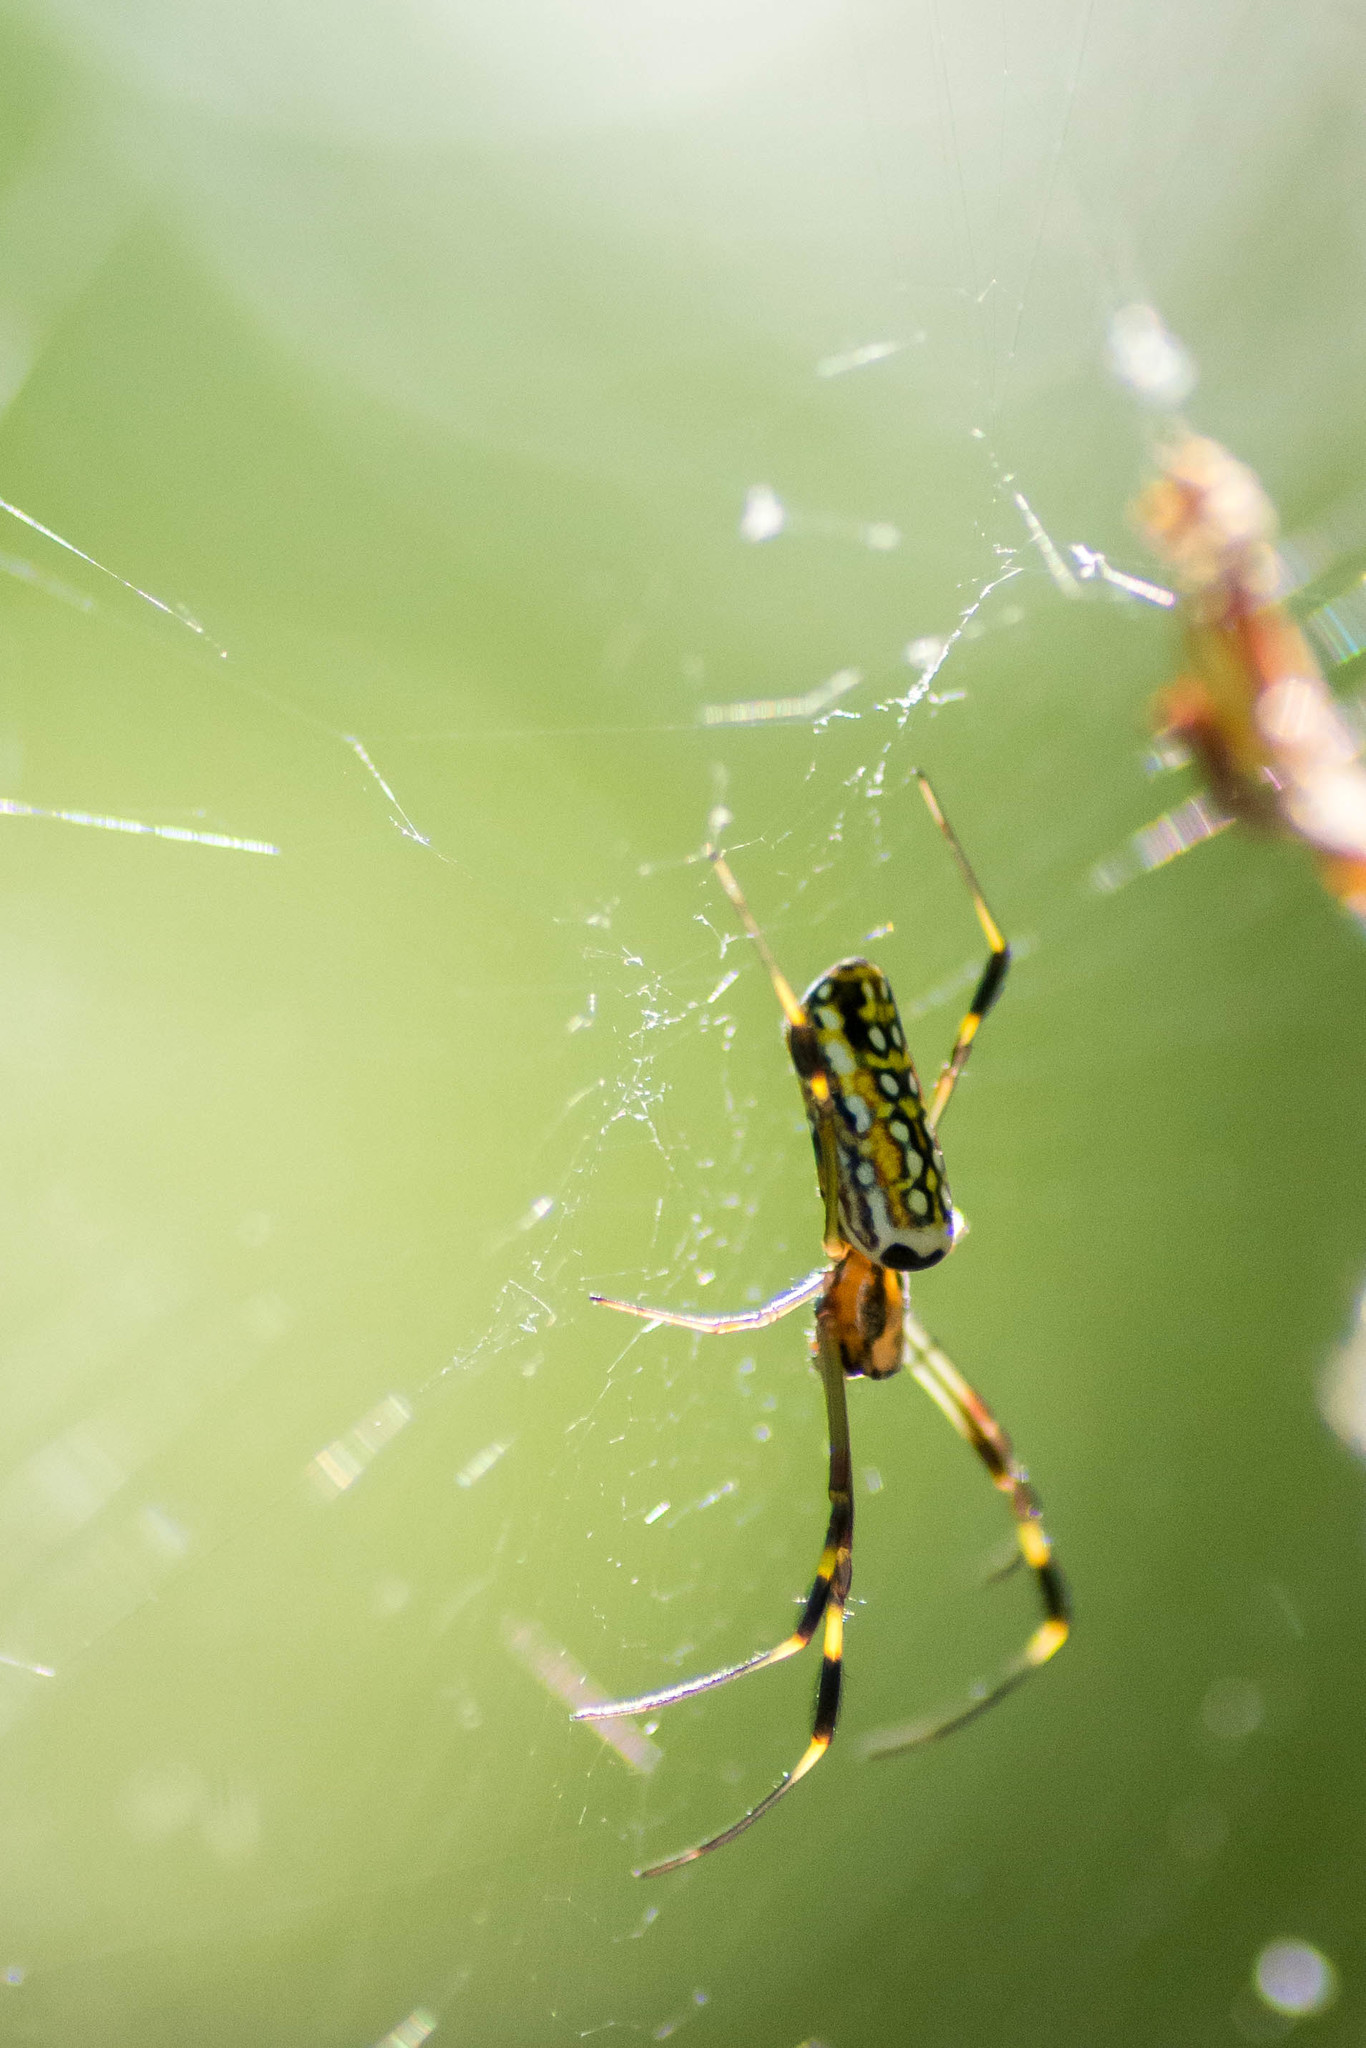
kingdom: Animalia
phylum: Arthropoda
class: Arachnida
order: Araneae
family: Araneidae
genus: Trichonephila
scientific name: Trichonephila clavipes
